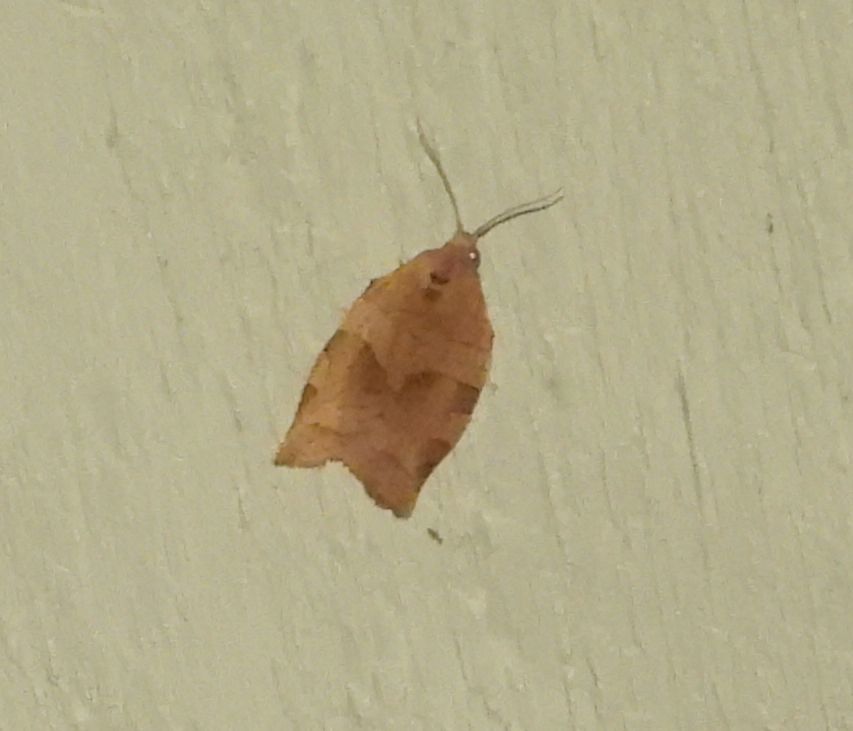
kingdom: Animalia
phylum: Arthropoda
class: Insecta
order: Lepidoptera
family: Tortricidae
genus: Choristoneura
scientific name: Choristoneura rosaceana
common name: Oblique-banded leafroller moth
